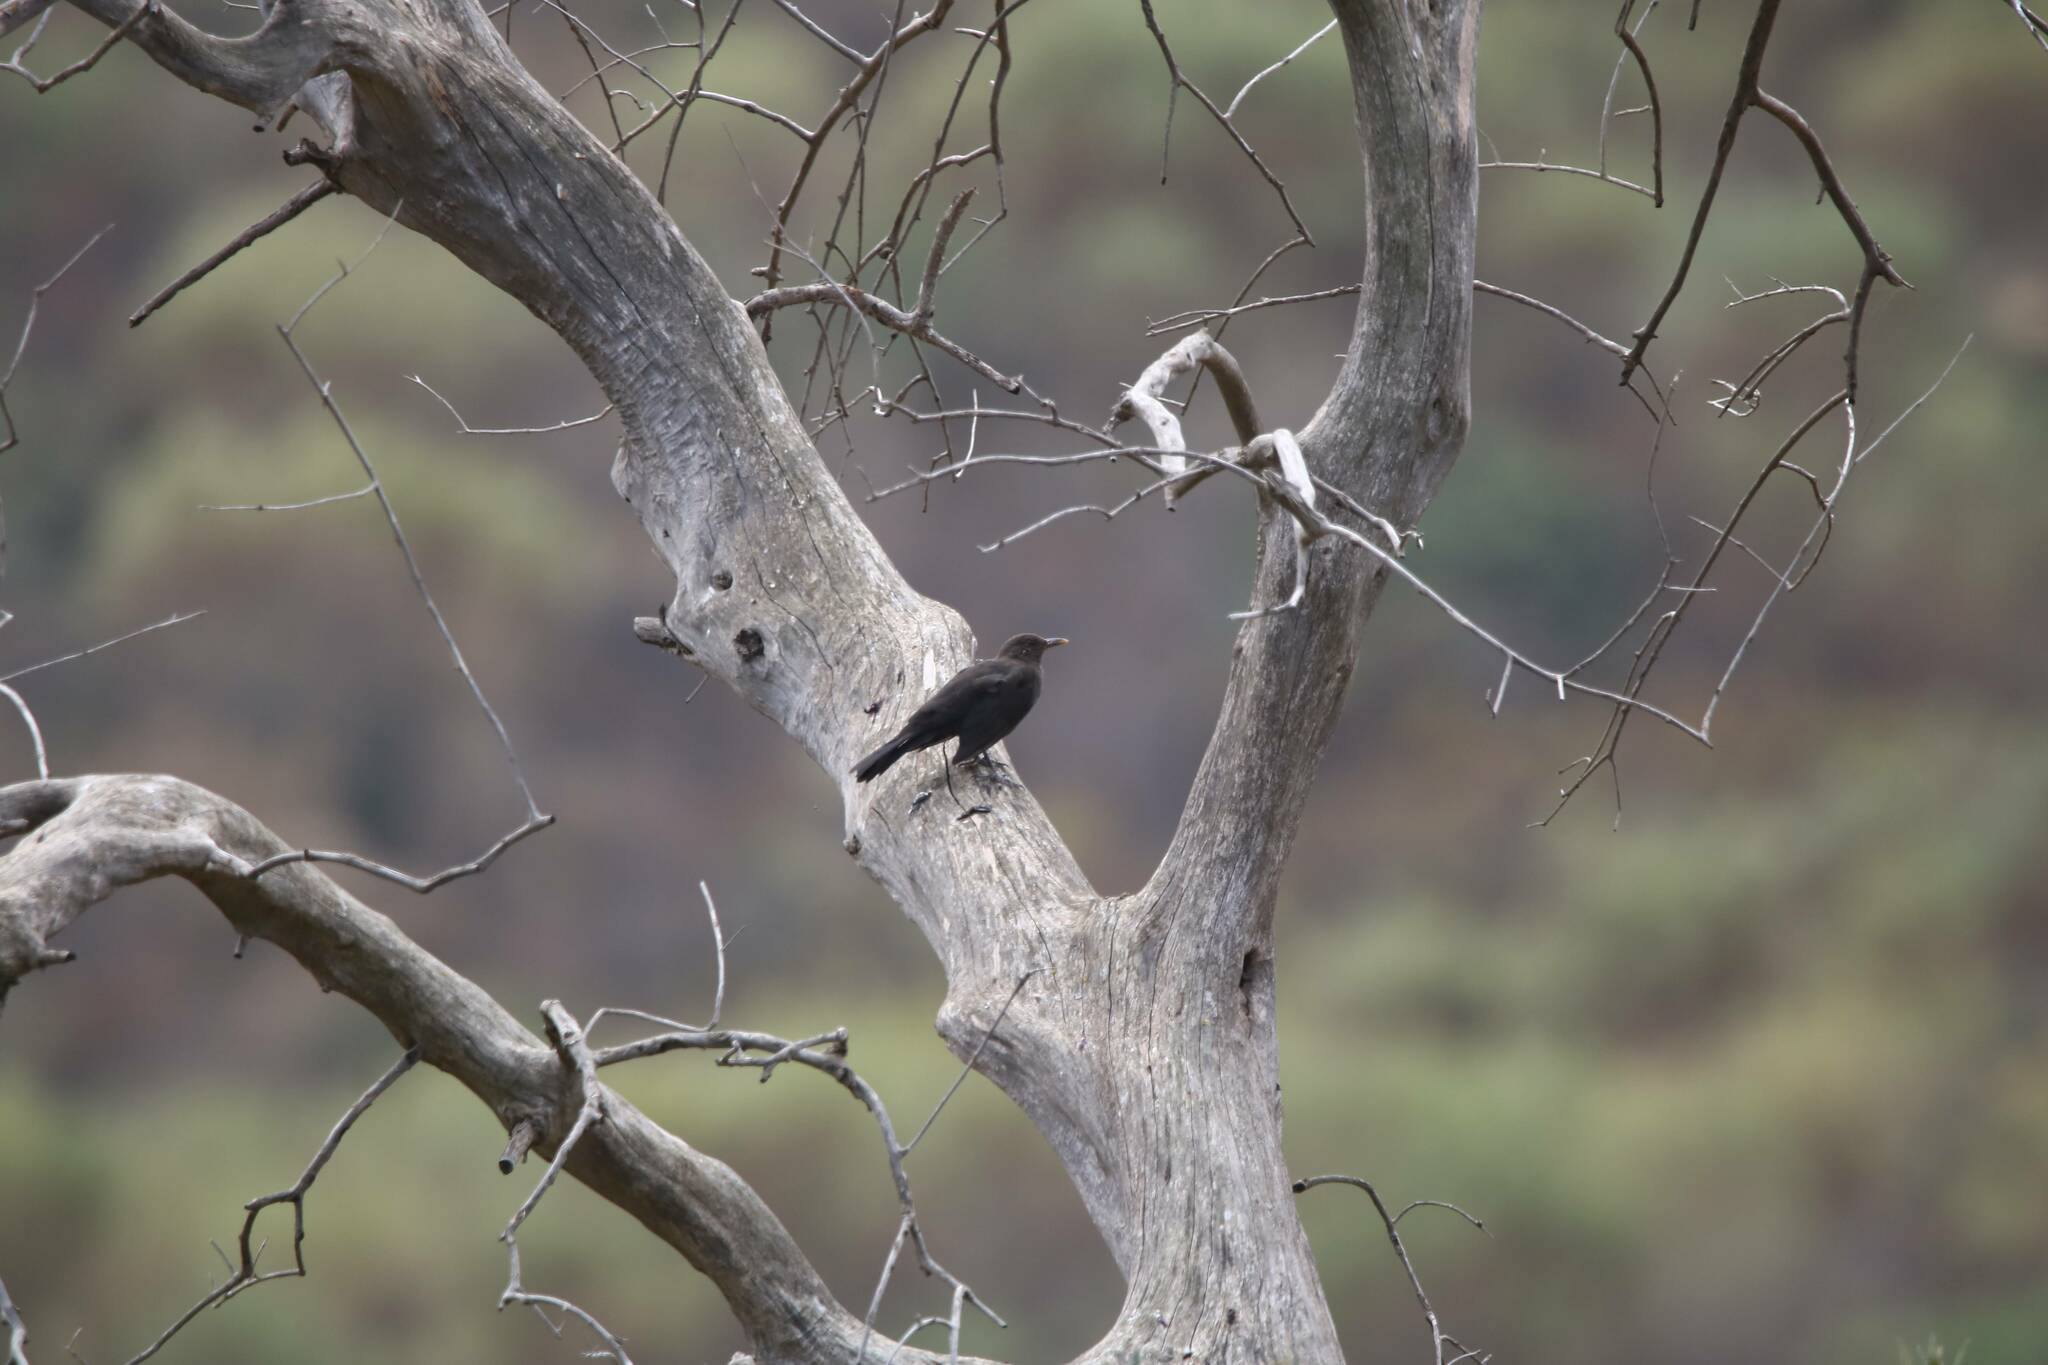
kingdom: Animalia
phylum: Chordata
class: Aves
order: Passeriformes
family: Turdidae
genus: Turdus
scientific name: Turdus merula
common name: Common blackbird
